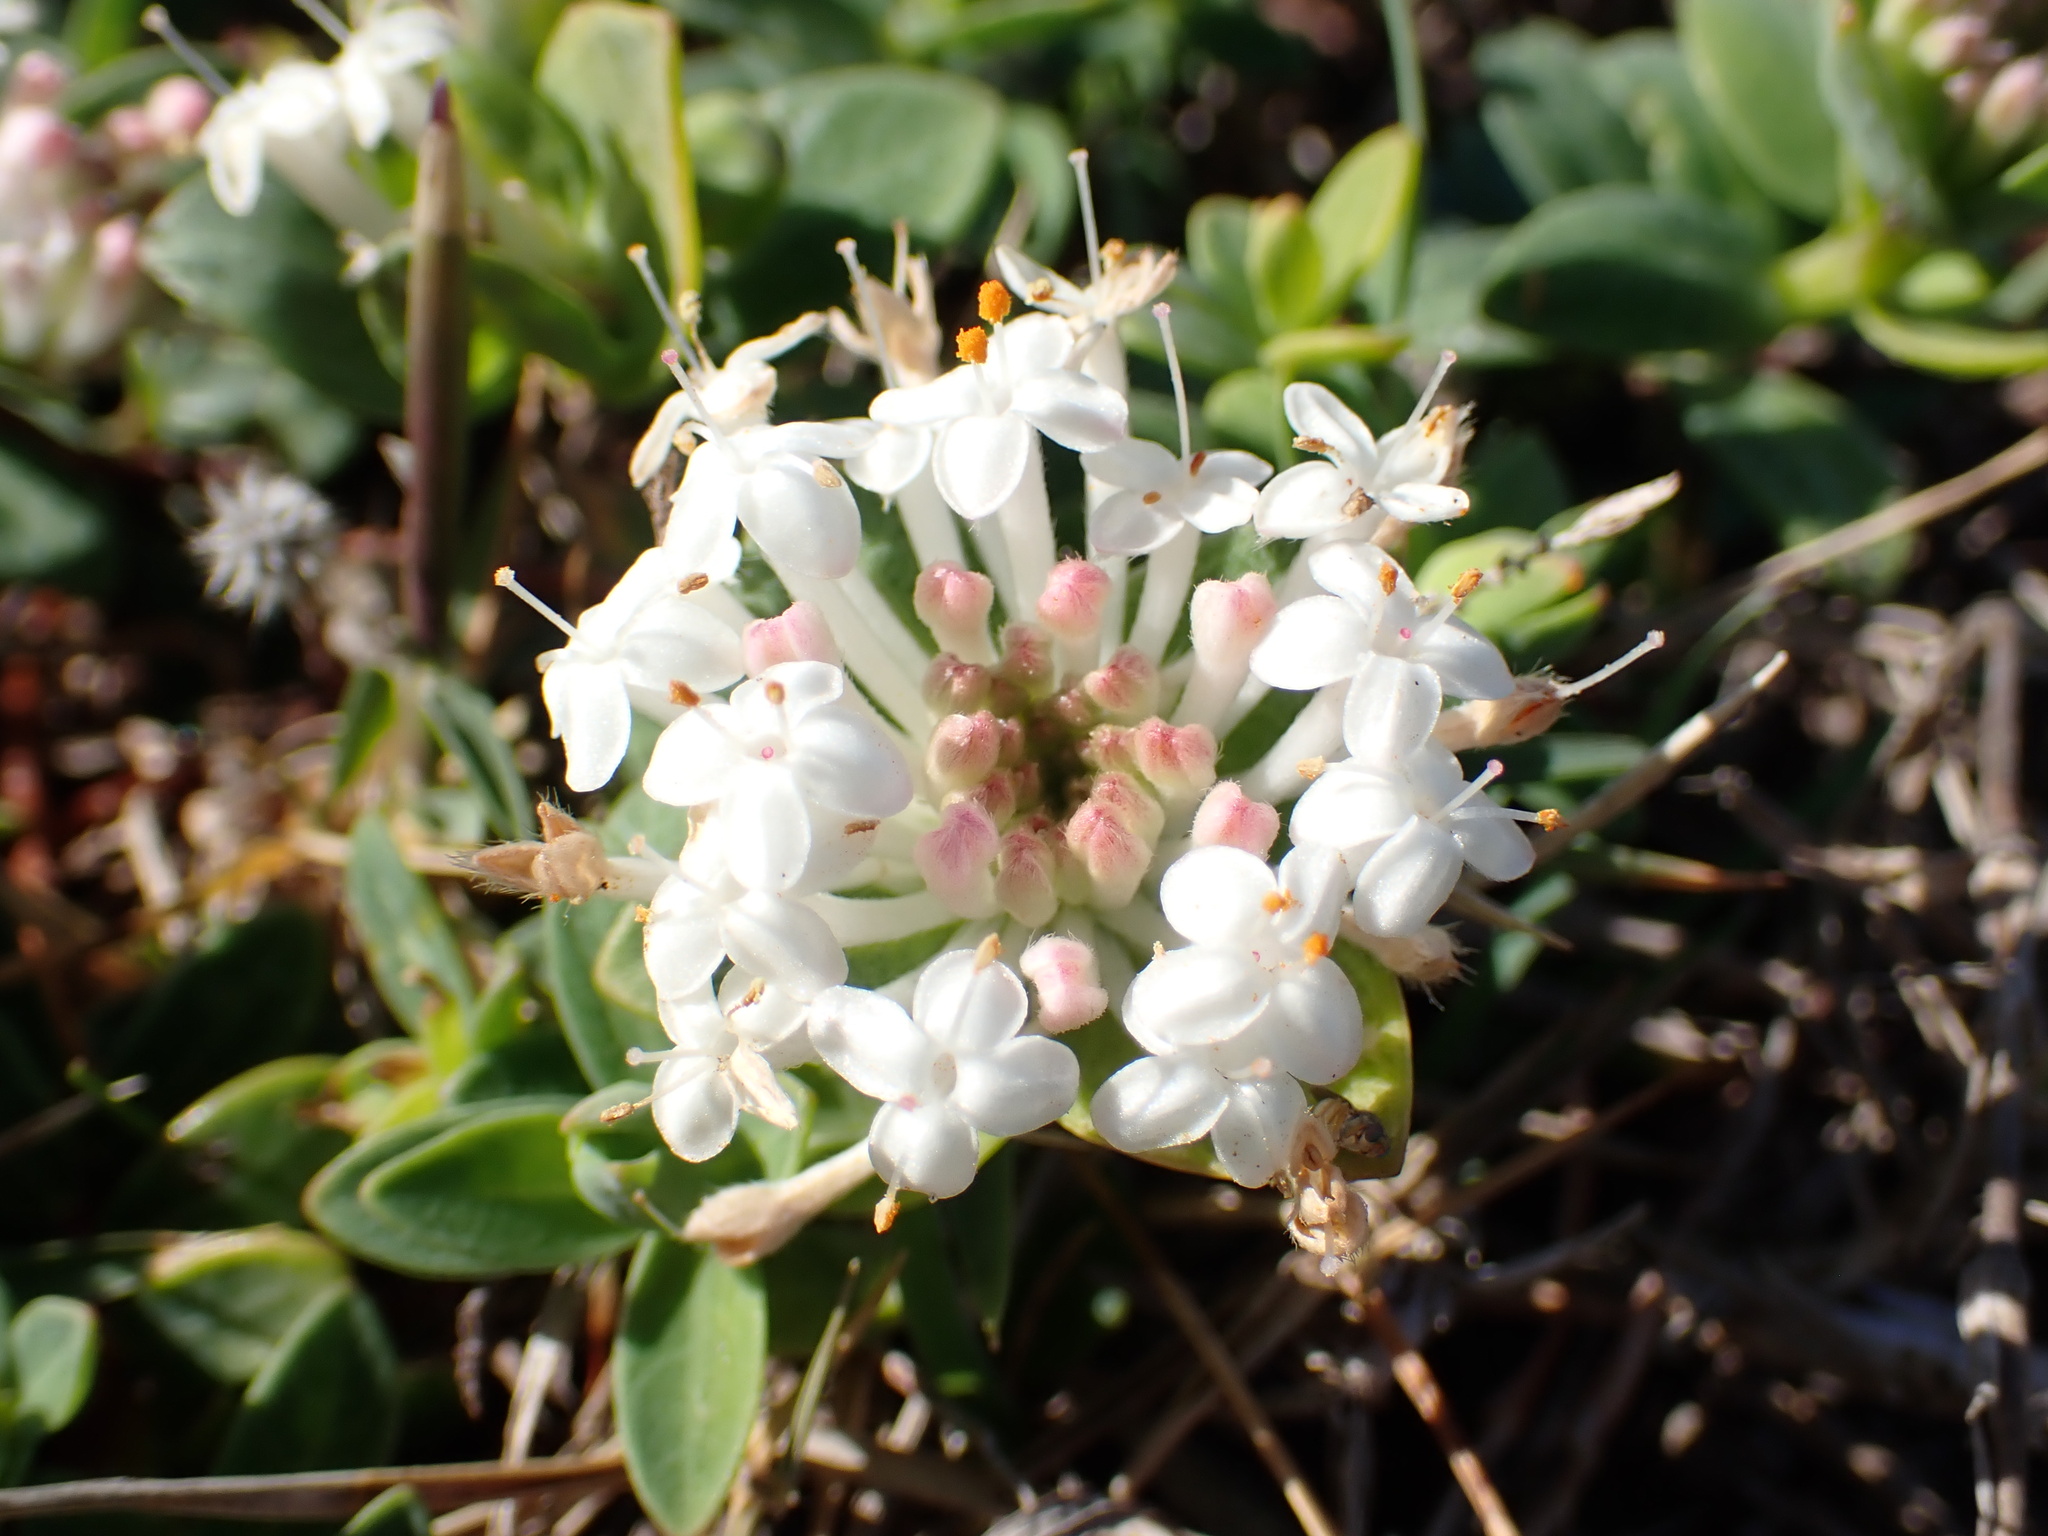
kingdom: Plantae
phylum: Tracheophyta
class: Magnoliopsida
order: Malvales
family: Thymelaeaceae
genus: Pimelea
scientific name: Pimelea linifolia
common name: Queen-of-the-bush
